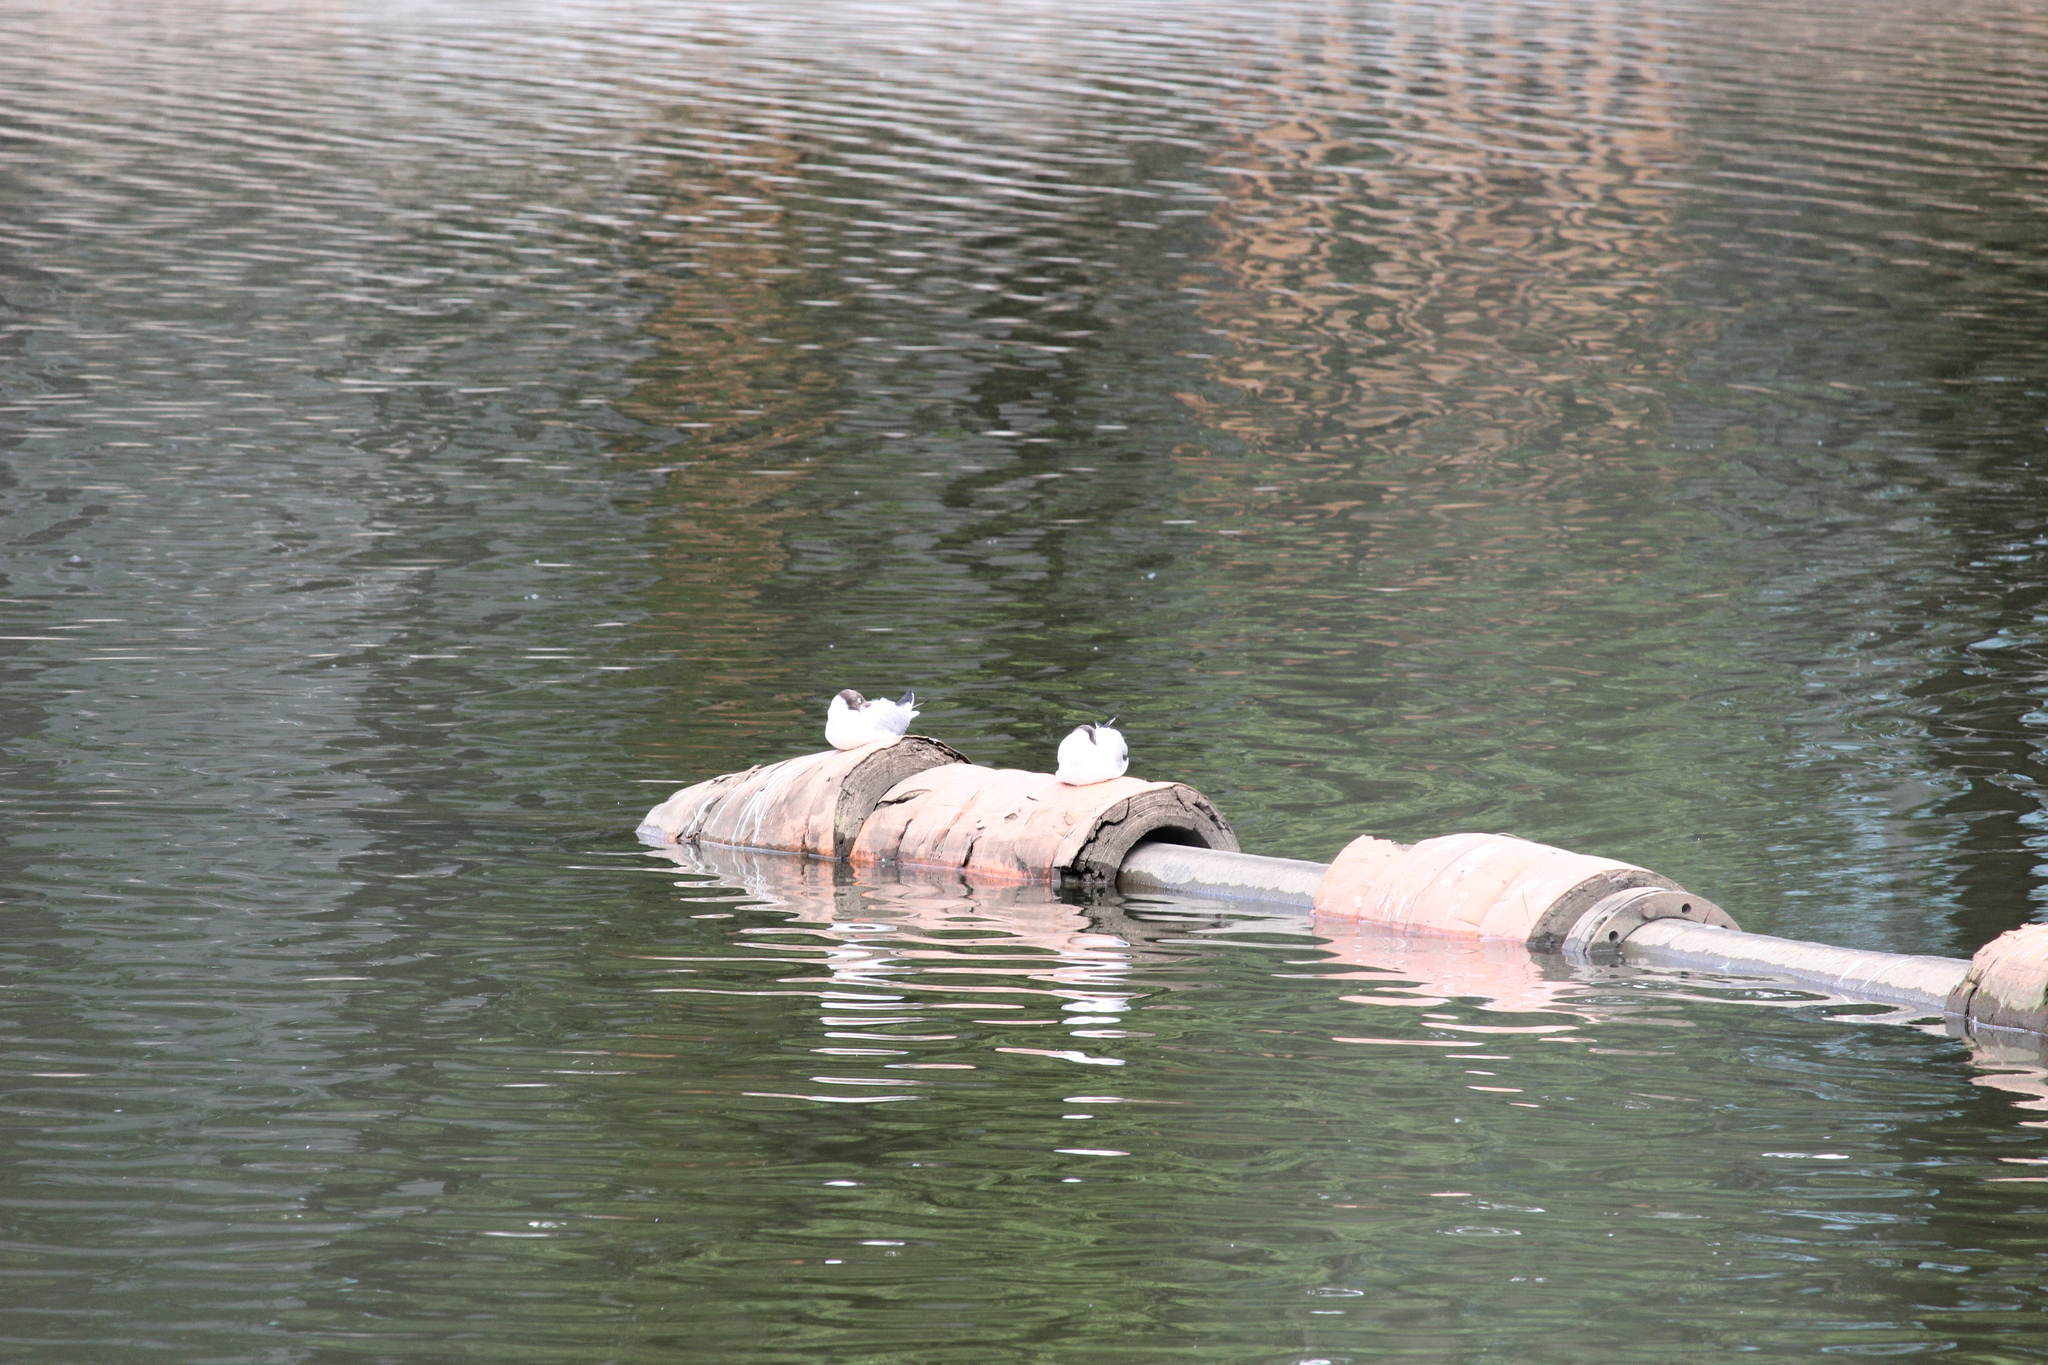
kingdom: Animalia
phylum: Chordata
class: Aves
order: Charadriiformes
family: Laridae
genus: Chroicocephalus
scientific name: Chroicocephalus ridibundus
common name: Black-headed gull
